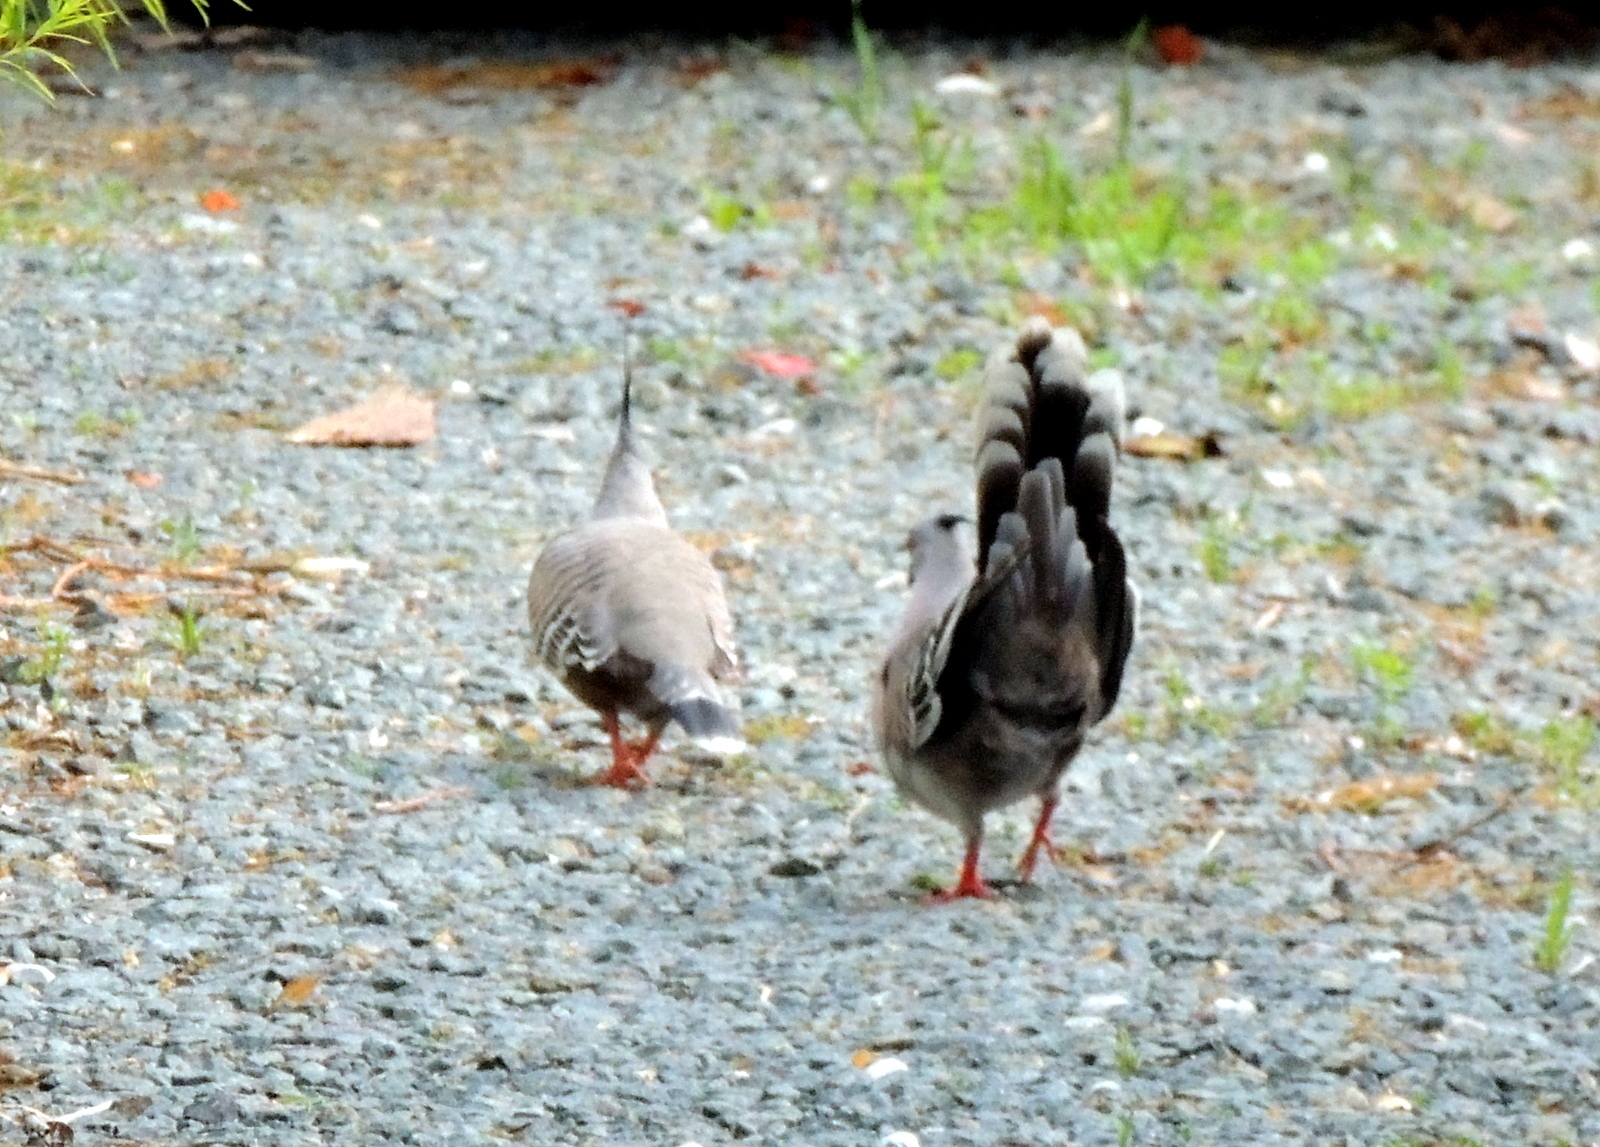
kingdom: Animalia
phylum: Chordata
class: Aves
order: Columbiformes
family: Columbidae
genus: Ocyphaps
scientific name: Ocyphaps lophotes
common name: Crested pigeon
